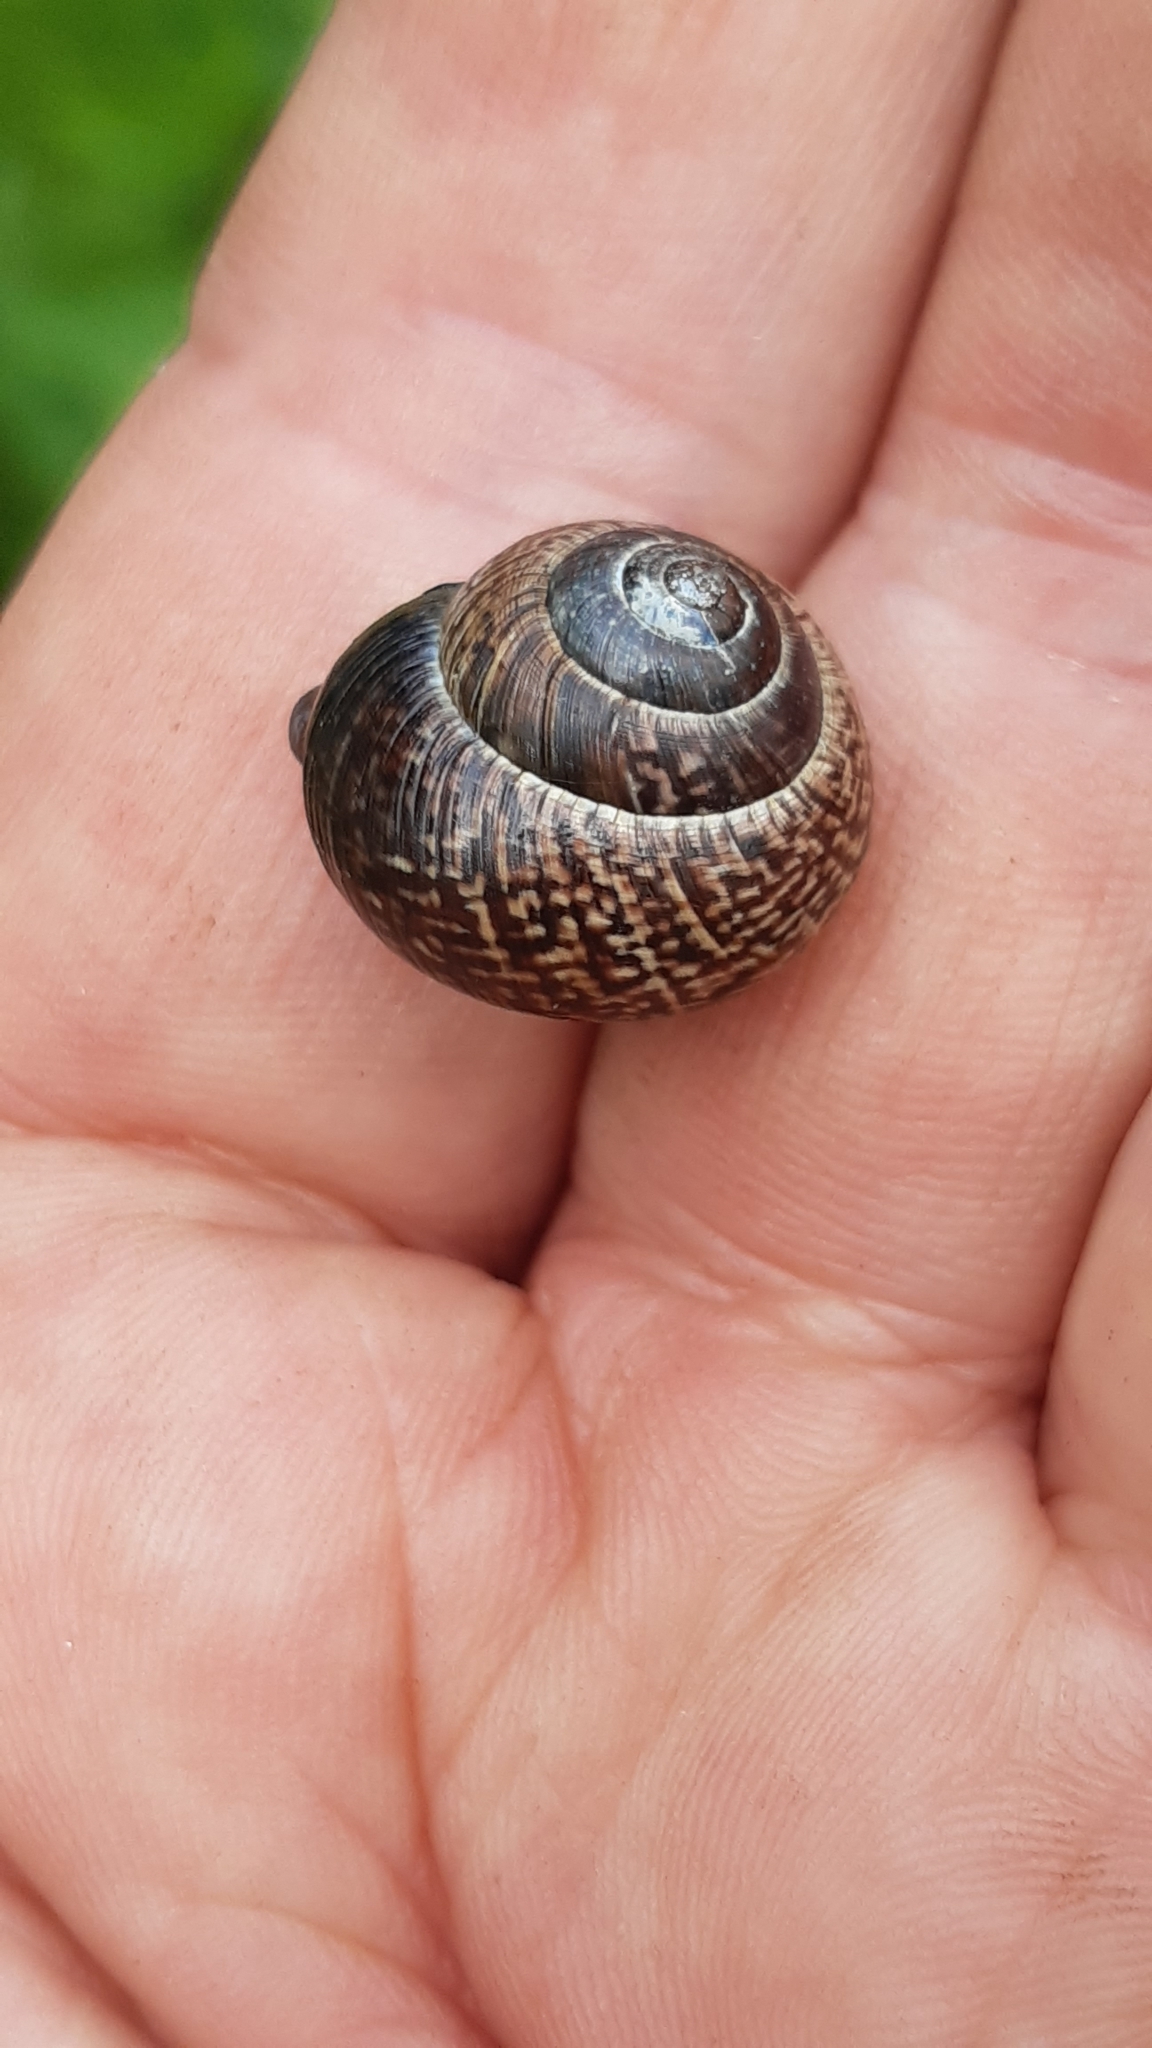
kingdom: Animalia
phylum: Mollusca
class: Gastropoda
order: Stylommatophora
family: Helicidae
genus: Arianta
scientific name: Arianta arbustorum
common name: Copse snail
